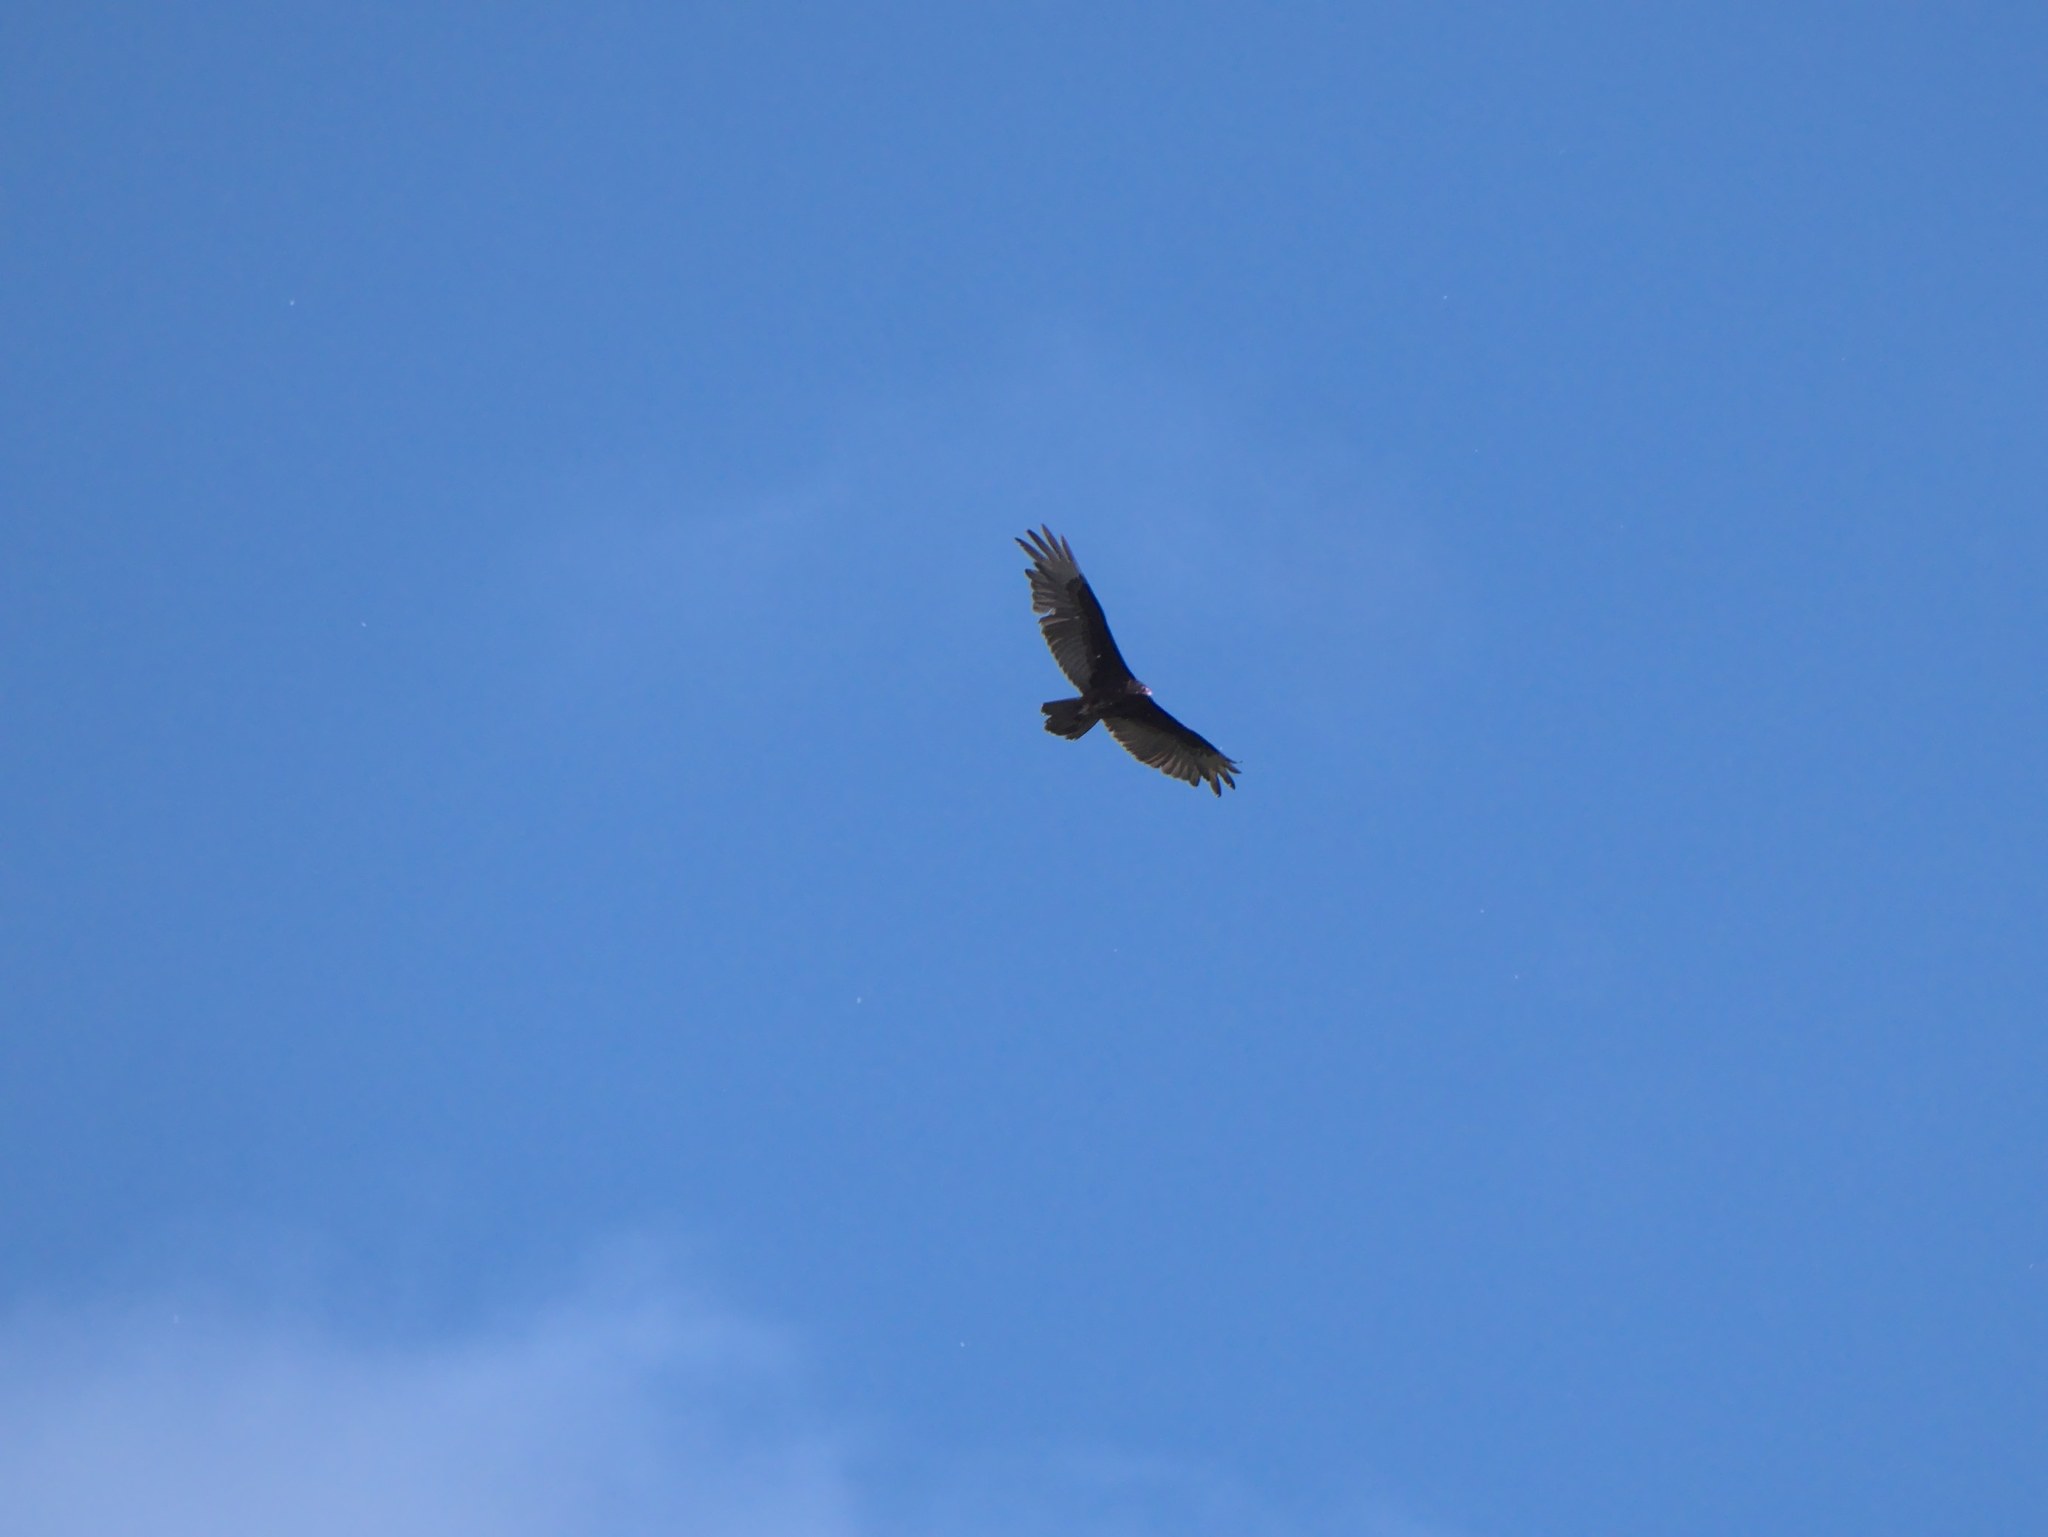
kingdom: Animalia
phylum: Chordata
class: Aves
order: Accipitriformes
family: Cathartidae
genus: Cathartes
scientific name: Cathartes aura
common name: Turkey vulture
